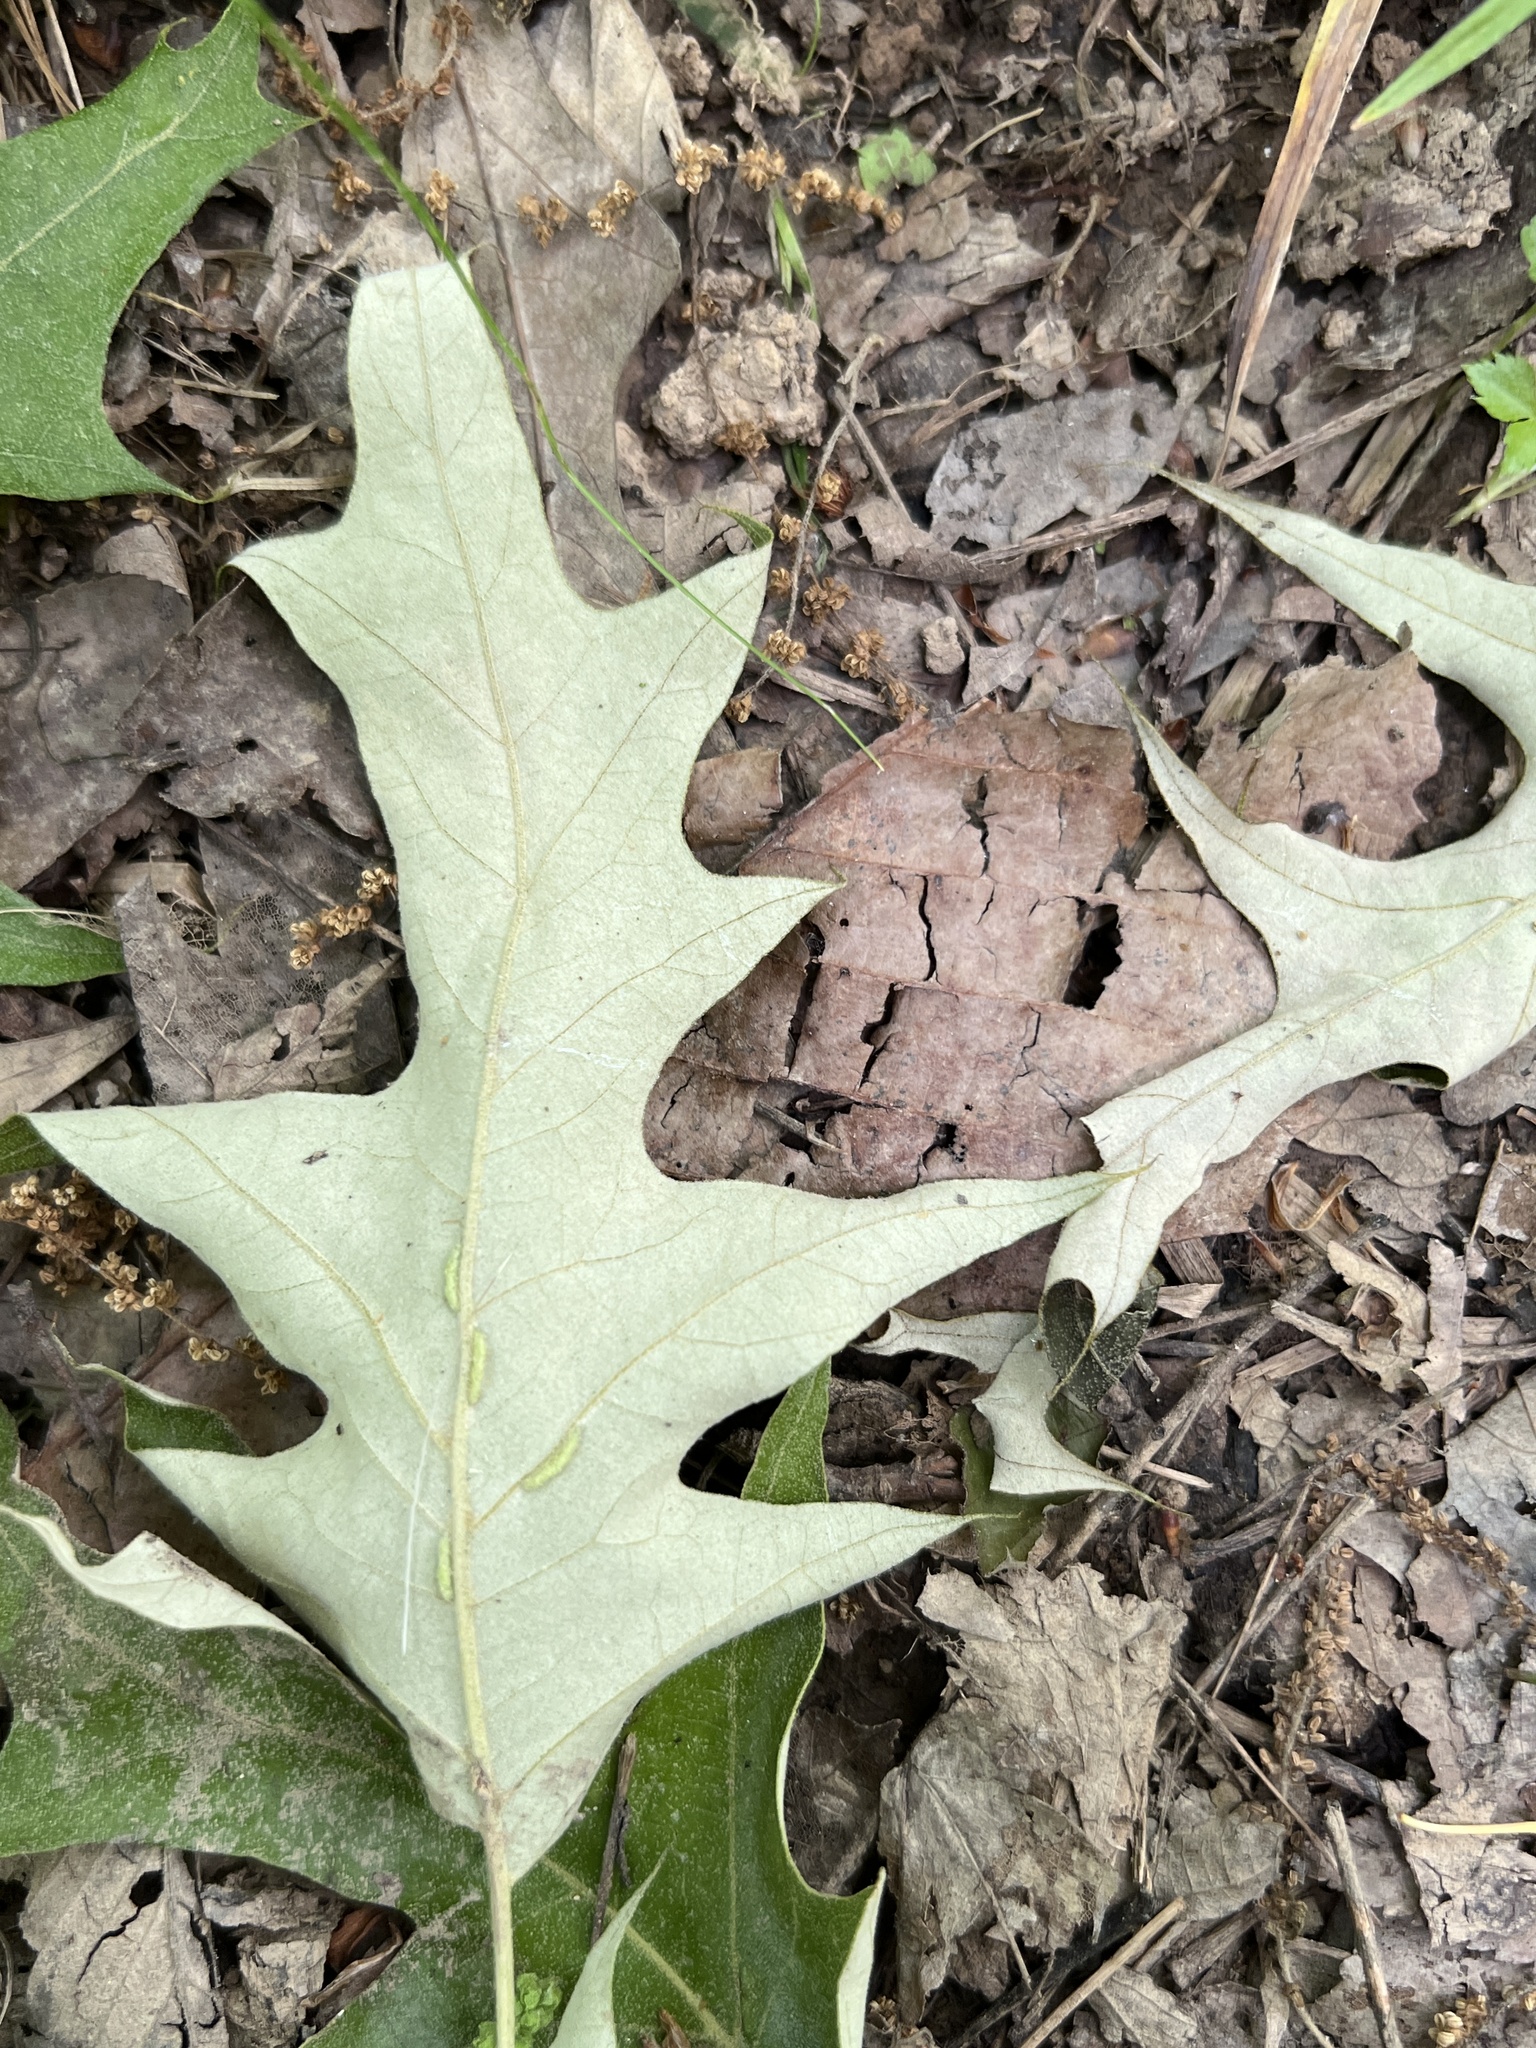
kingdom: Plantae
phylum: Tracheophyta
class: Magnoliopsida
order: Fagales
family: Fagaceae
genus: Quercus
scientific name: Quercus pagoda
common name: Cherrybark oak
